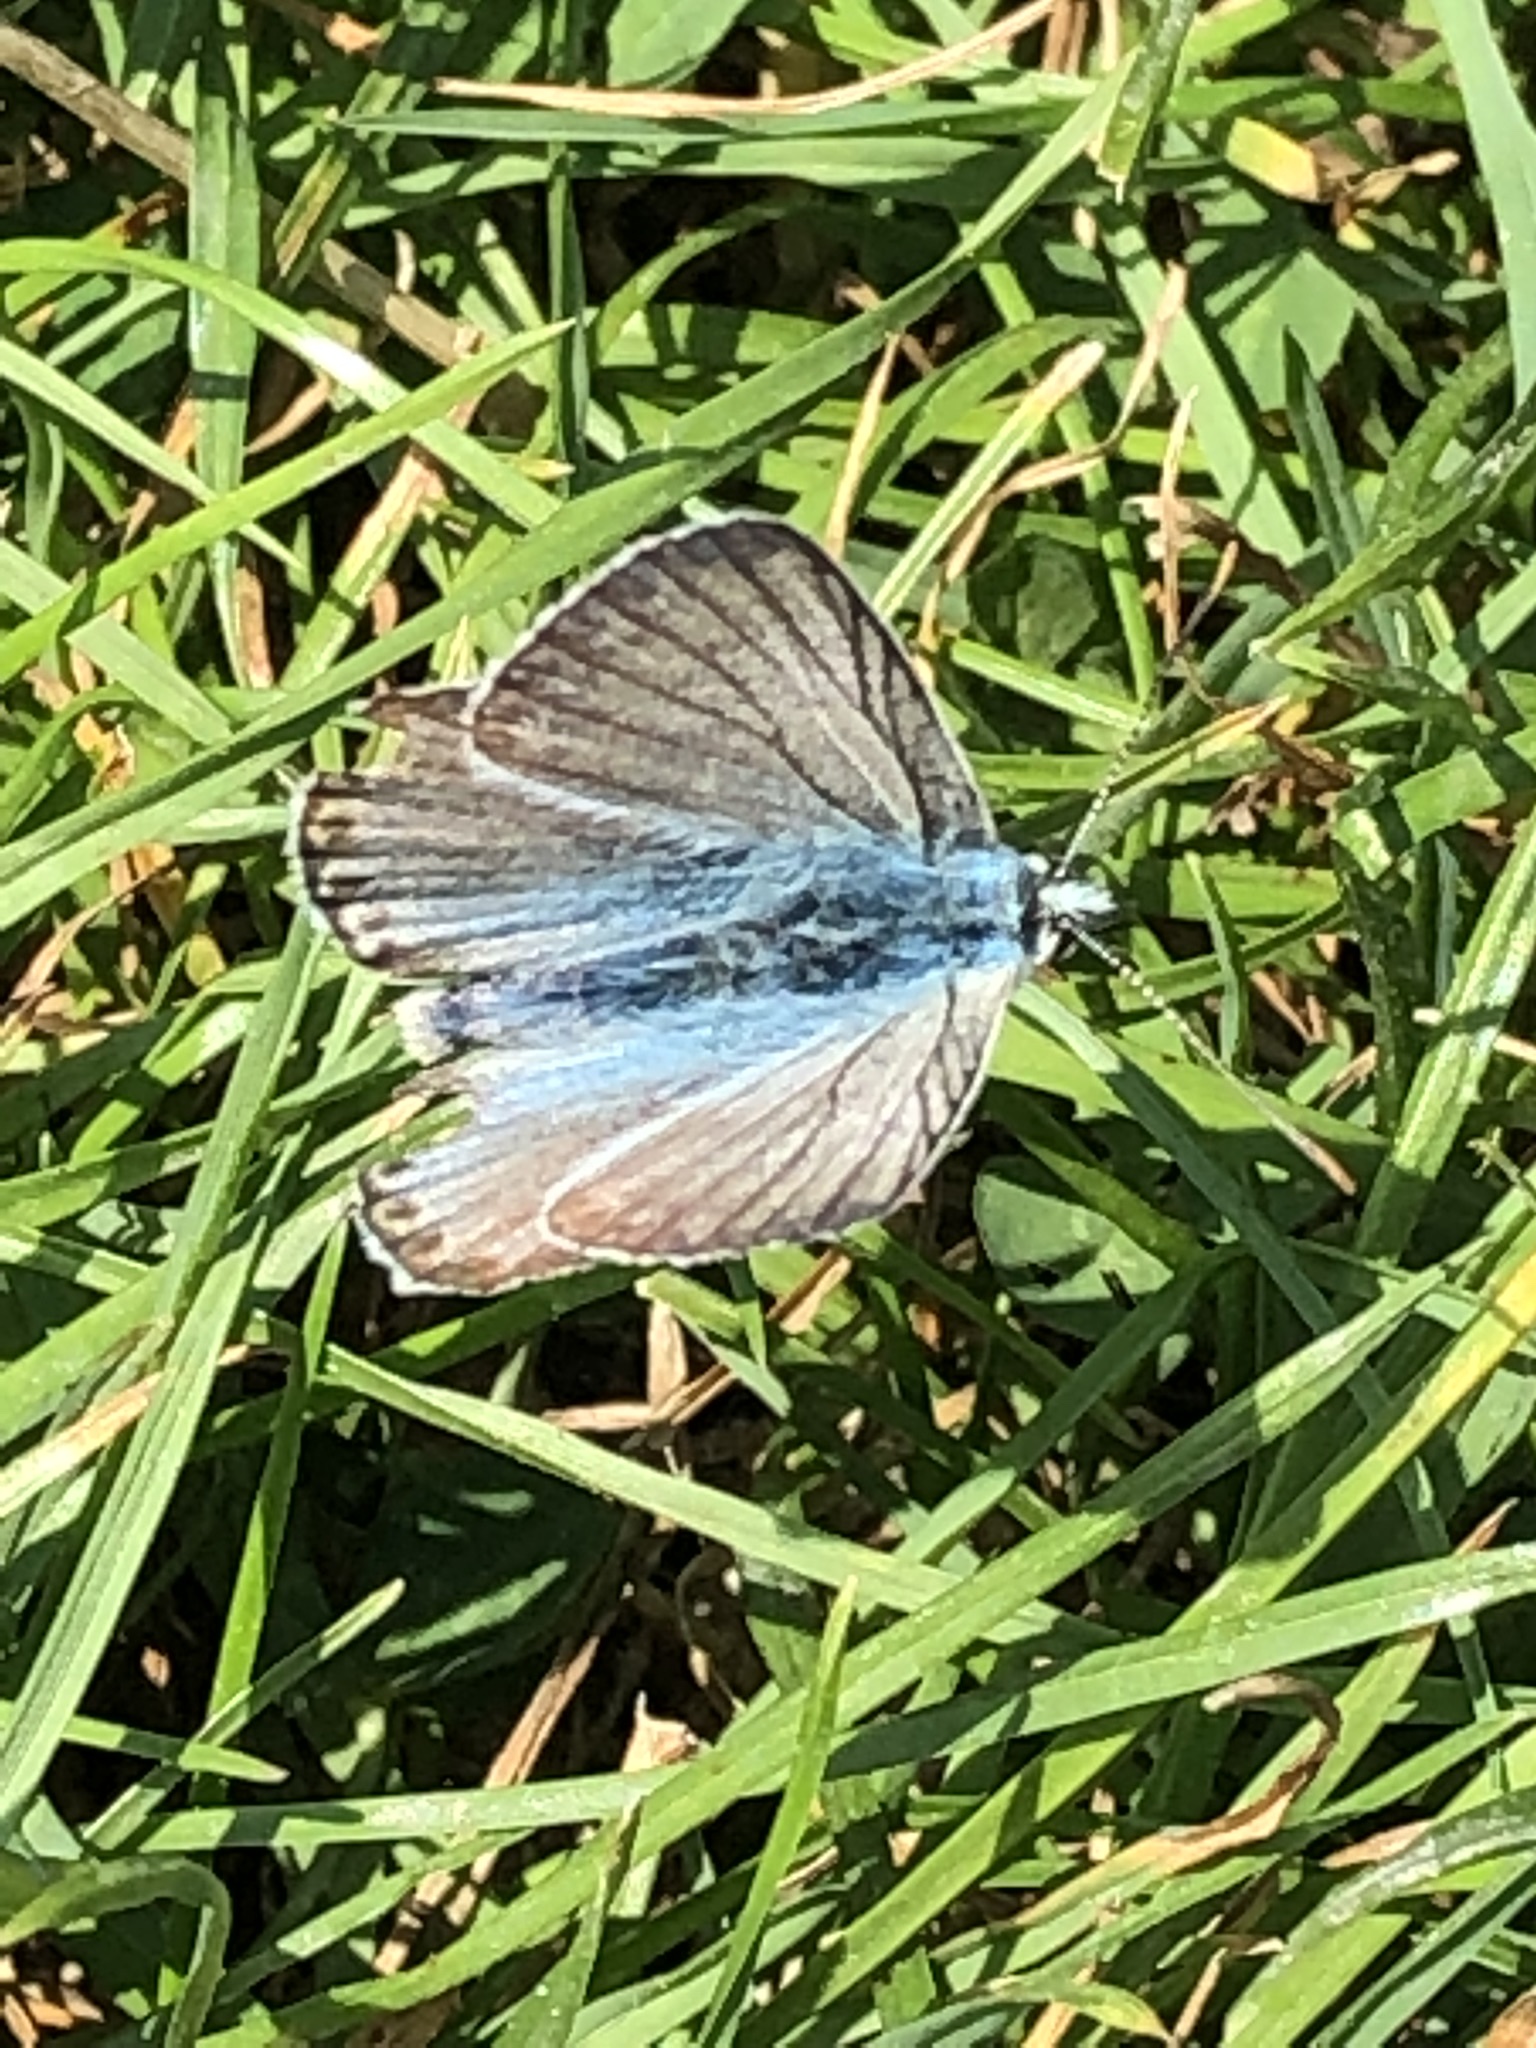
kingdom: Animalia
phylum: Arthropoda
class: Insecta
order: Lepidoptera
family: Lycaenidae
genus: Lysandra
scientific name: Lysandra coridon
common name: Chalkhill blue
